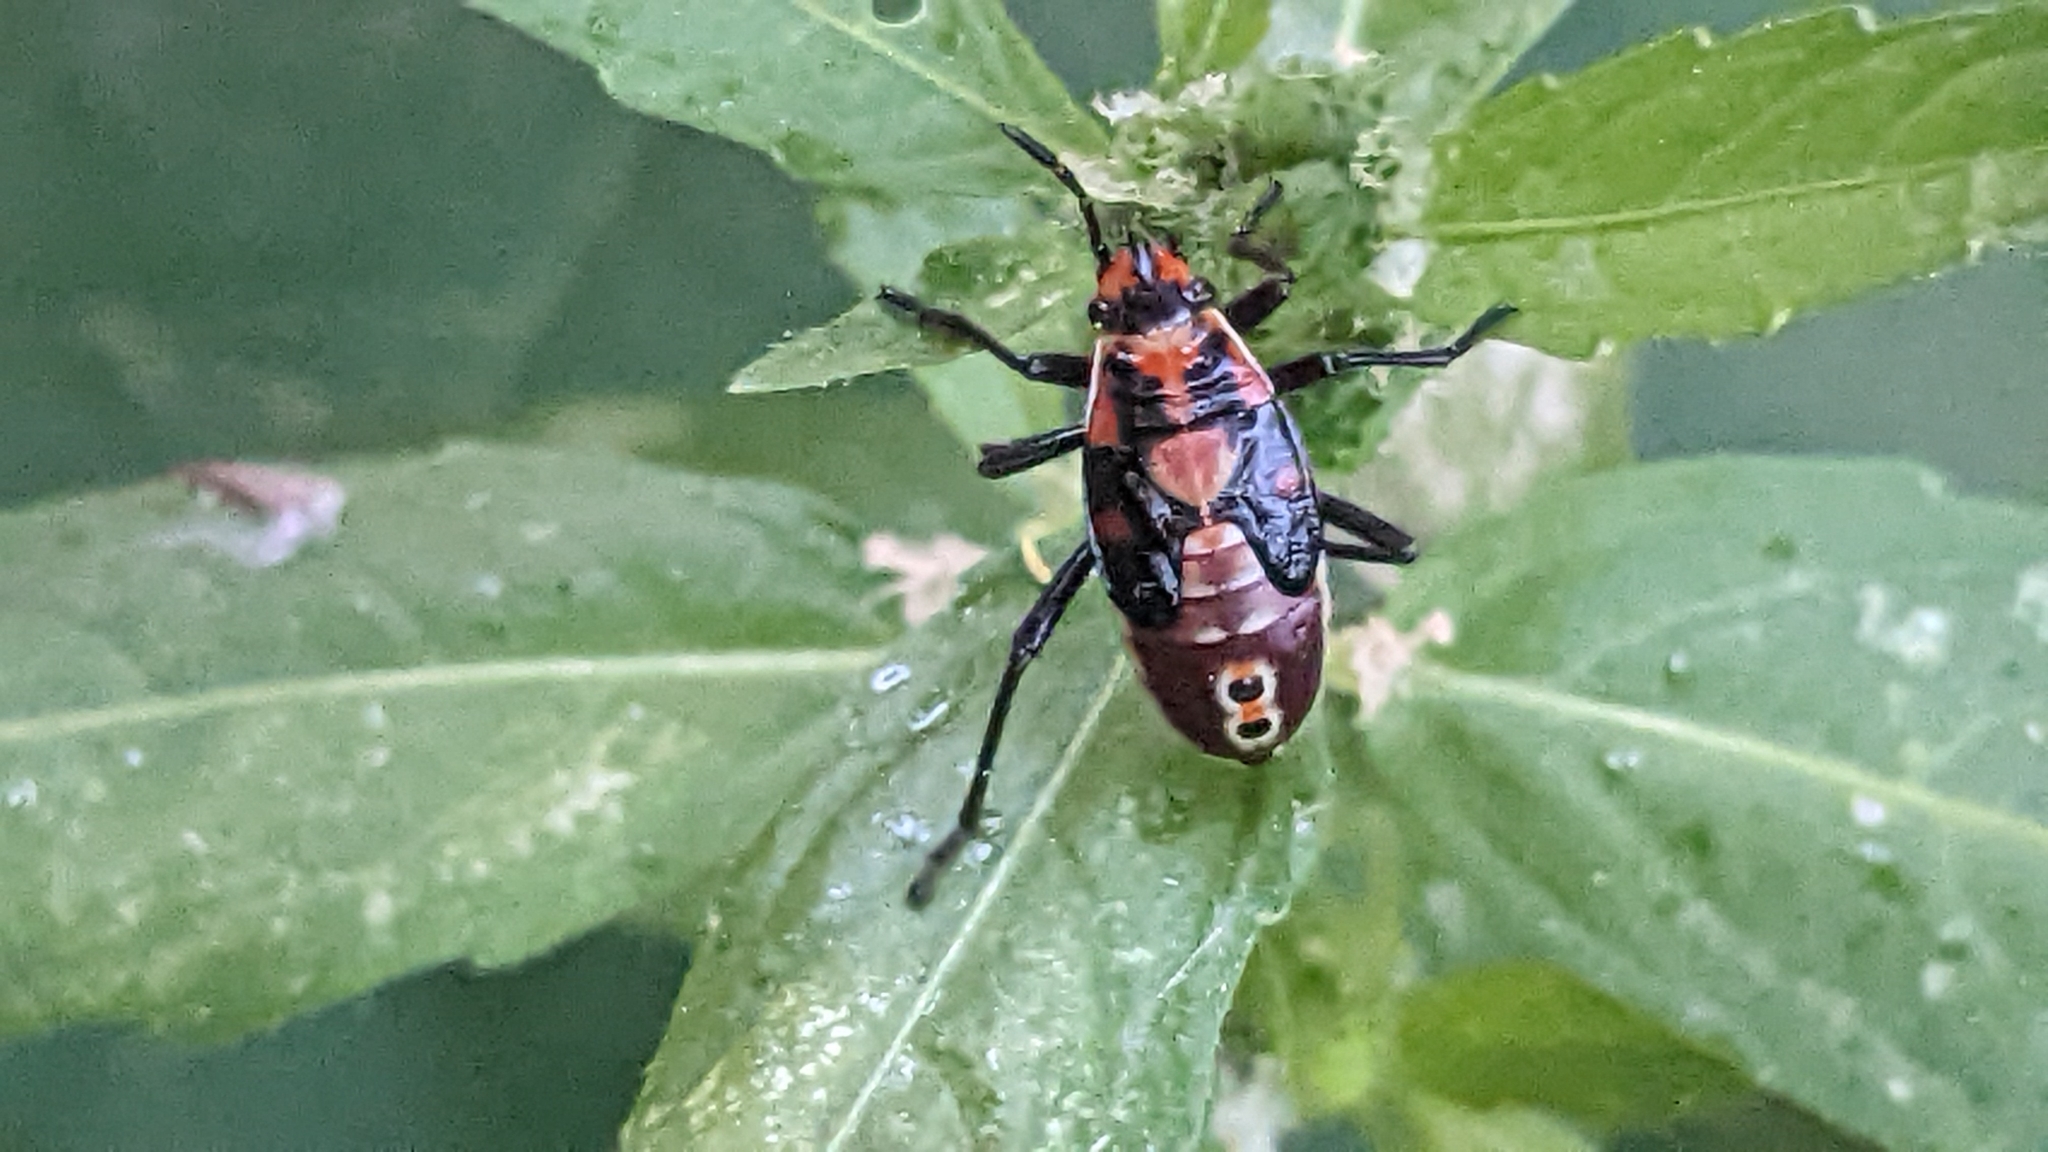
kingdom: Animalia
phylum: Arthropoda
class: Insecta
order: Hemiptera
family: Lygaeidae
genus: Spilostethus
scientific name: Spilostethus pandurus
